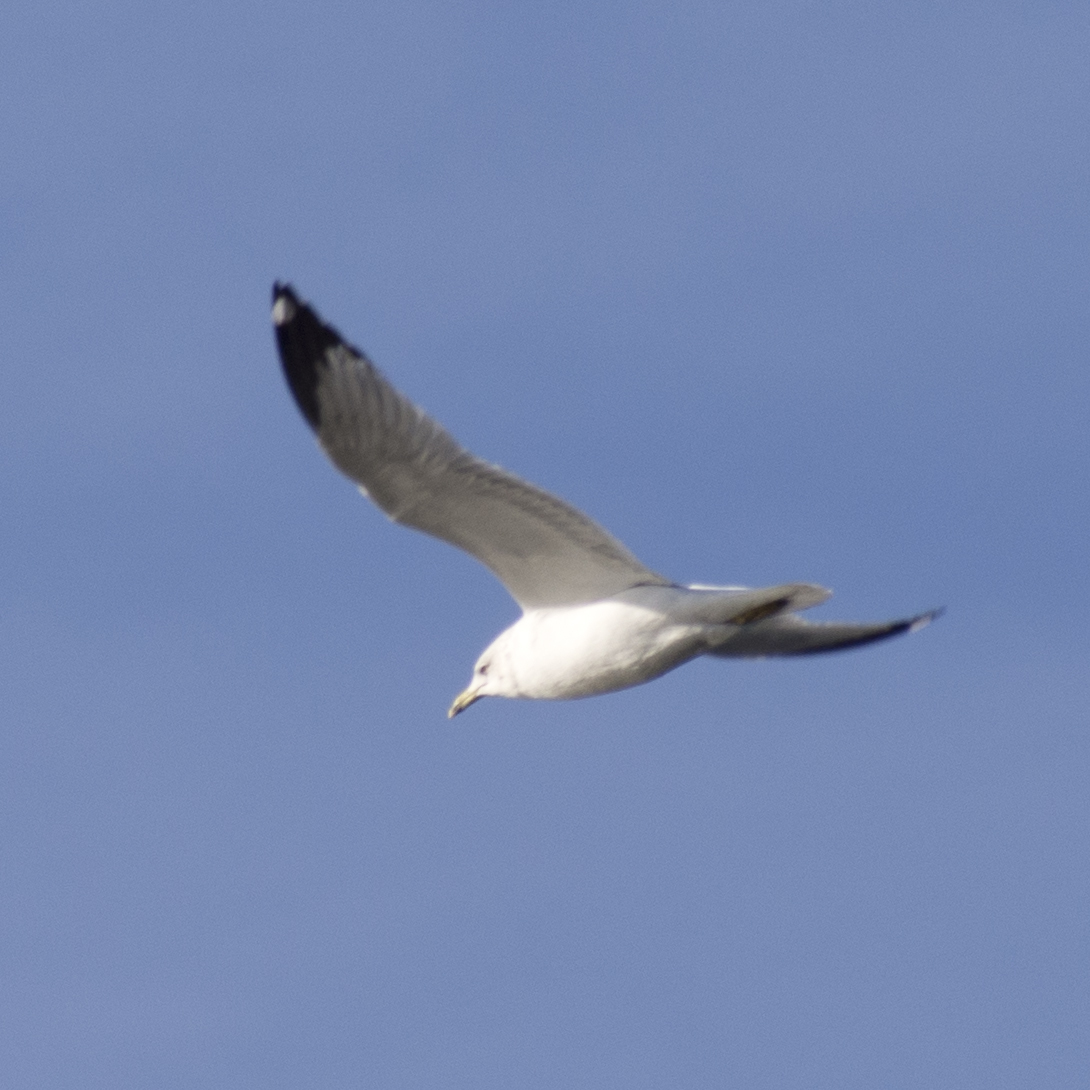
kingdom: Animalia
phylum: Chordata
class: Aves
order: Charadriiformes
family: Laridae
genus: Larus
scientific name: Larus delawarensis
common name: Ring-billed gull
